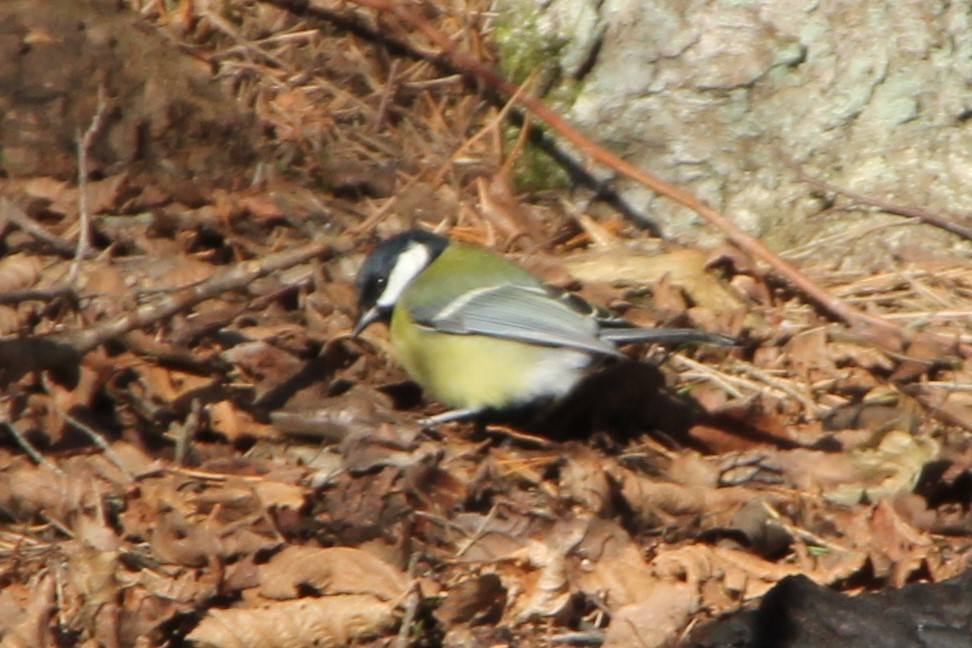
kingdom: Animalia
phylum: Chordata
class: Aves
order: Passeriformes
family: Paridae
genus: Parus
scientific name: Parus major
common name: Great tit
